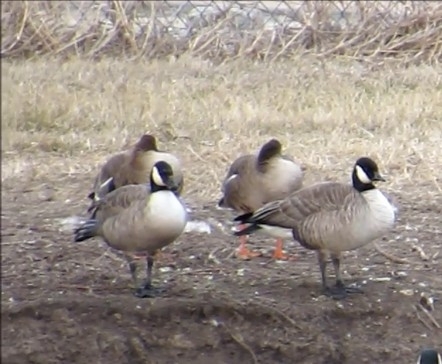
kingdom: Animalia
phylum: Chordata
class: Aves
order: Anseriformes
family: Anatidae
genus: Branta
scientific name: Branta hutchinsii
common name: Cackling goose
